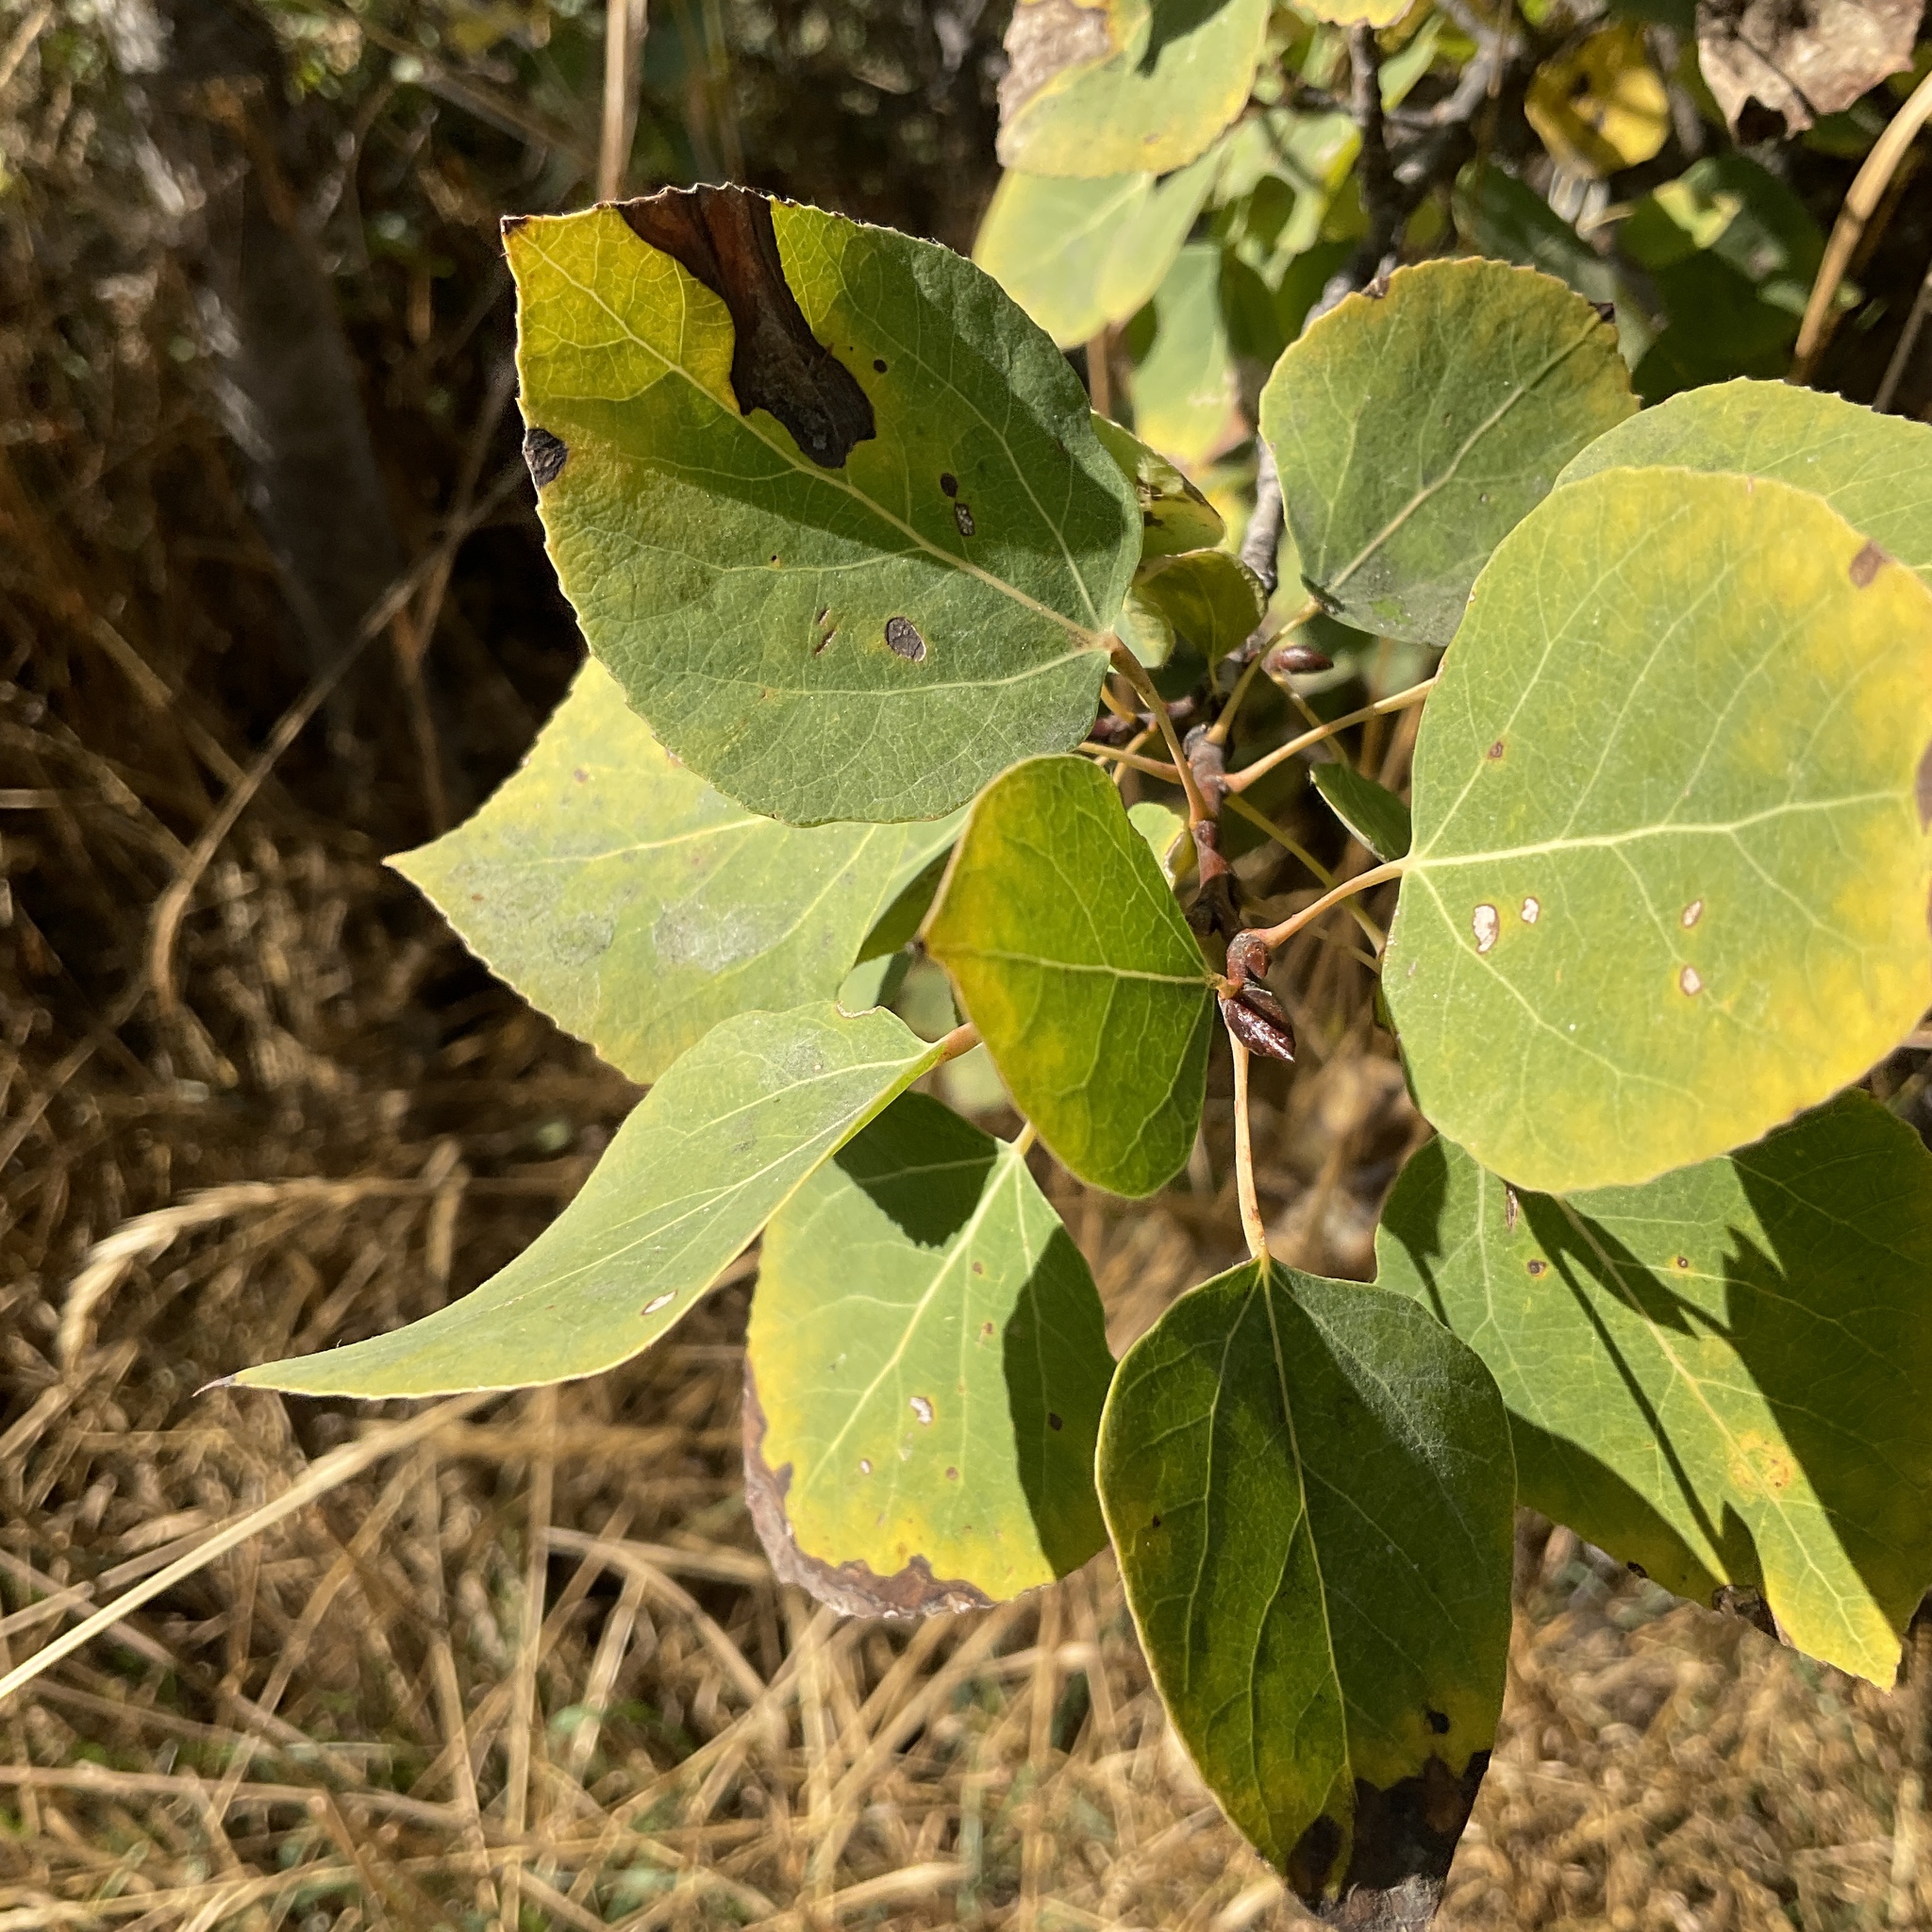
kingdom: Plantae
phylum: Tracheophyta
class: Magnoliopsida
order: Malpighiales
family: Salicaceae
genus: Populus
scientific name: Populus tremuloides
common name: Quaking aspen
